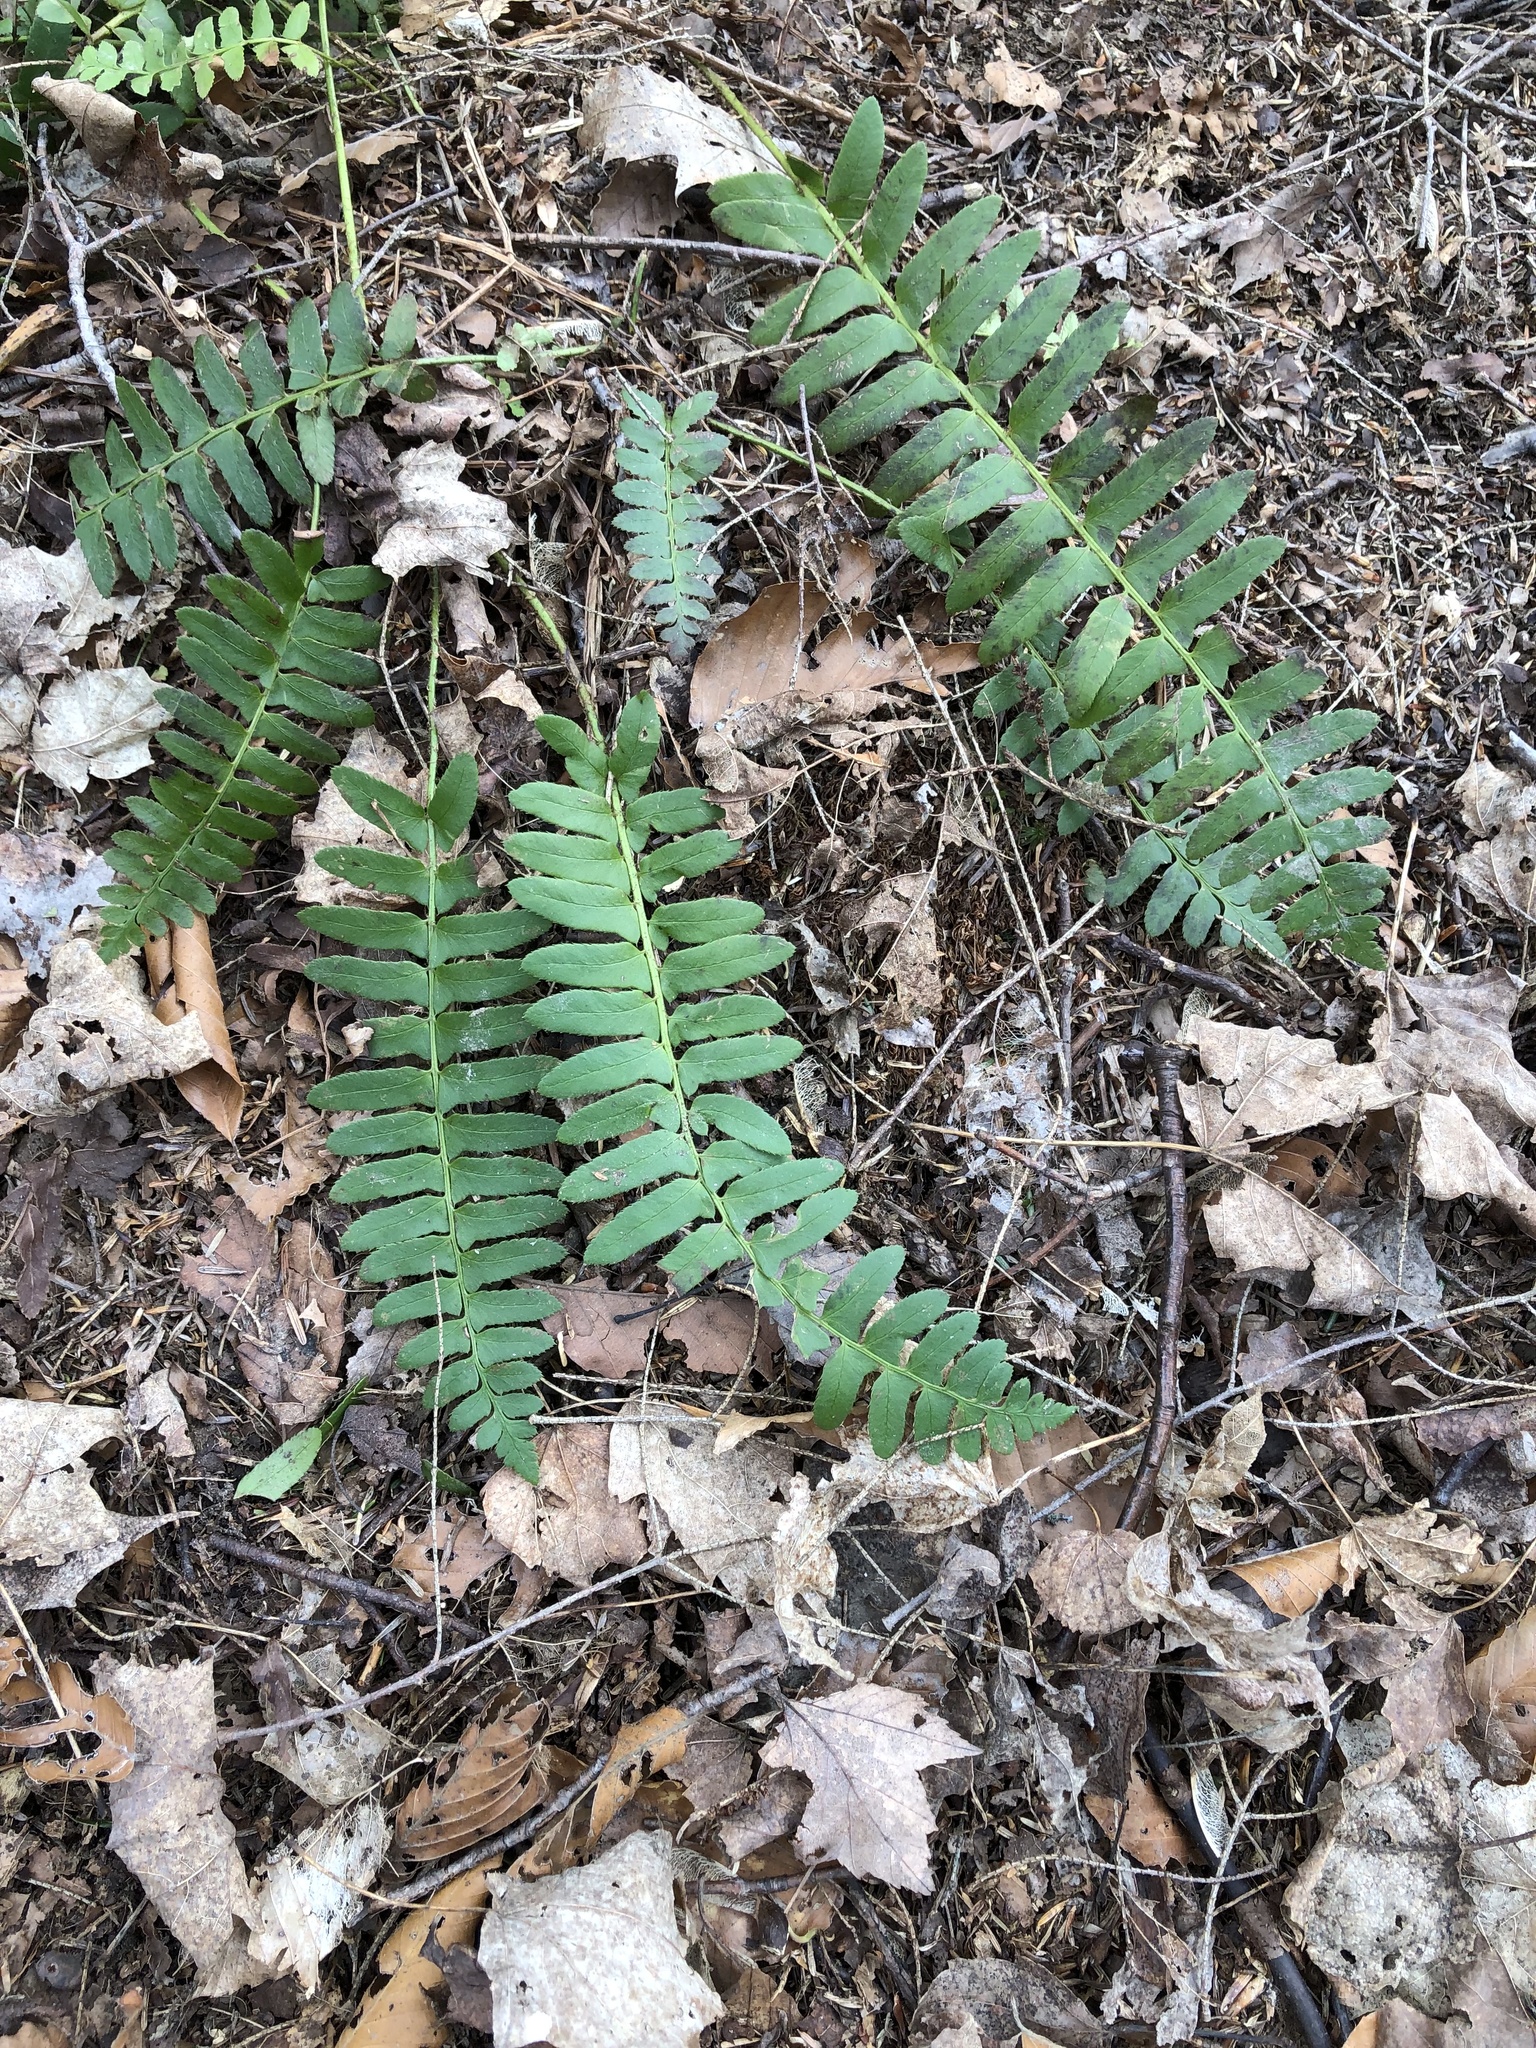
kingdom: Plantae
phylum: Tracheophyta
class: Polypodiopsida
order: Polypodiales
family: Dryopteridaceae
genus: Polystichum
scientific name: Polystichum acrostichoides
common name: Christmas fern
